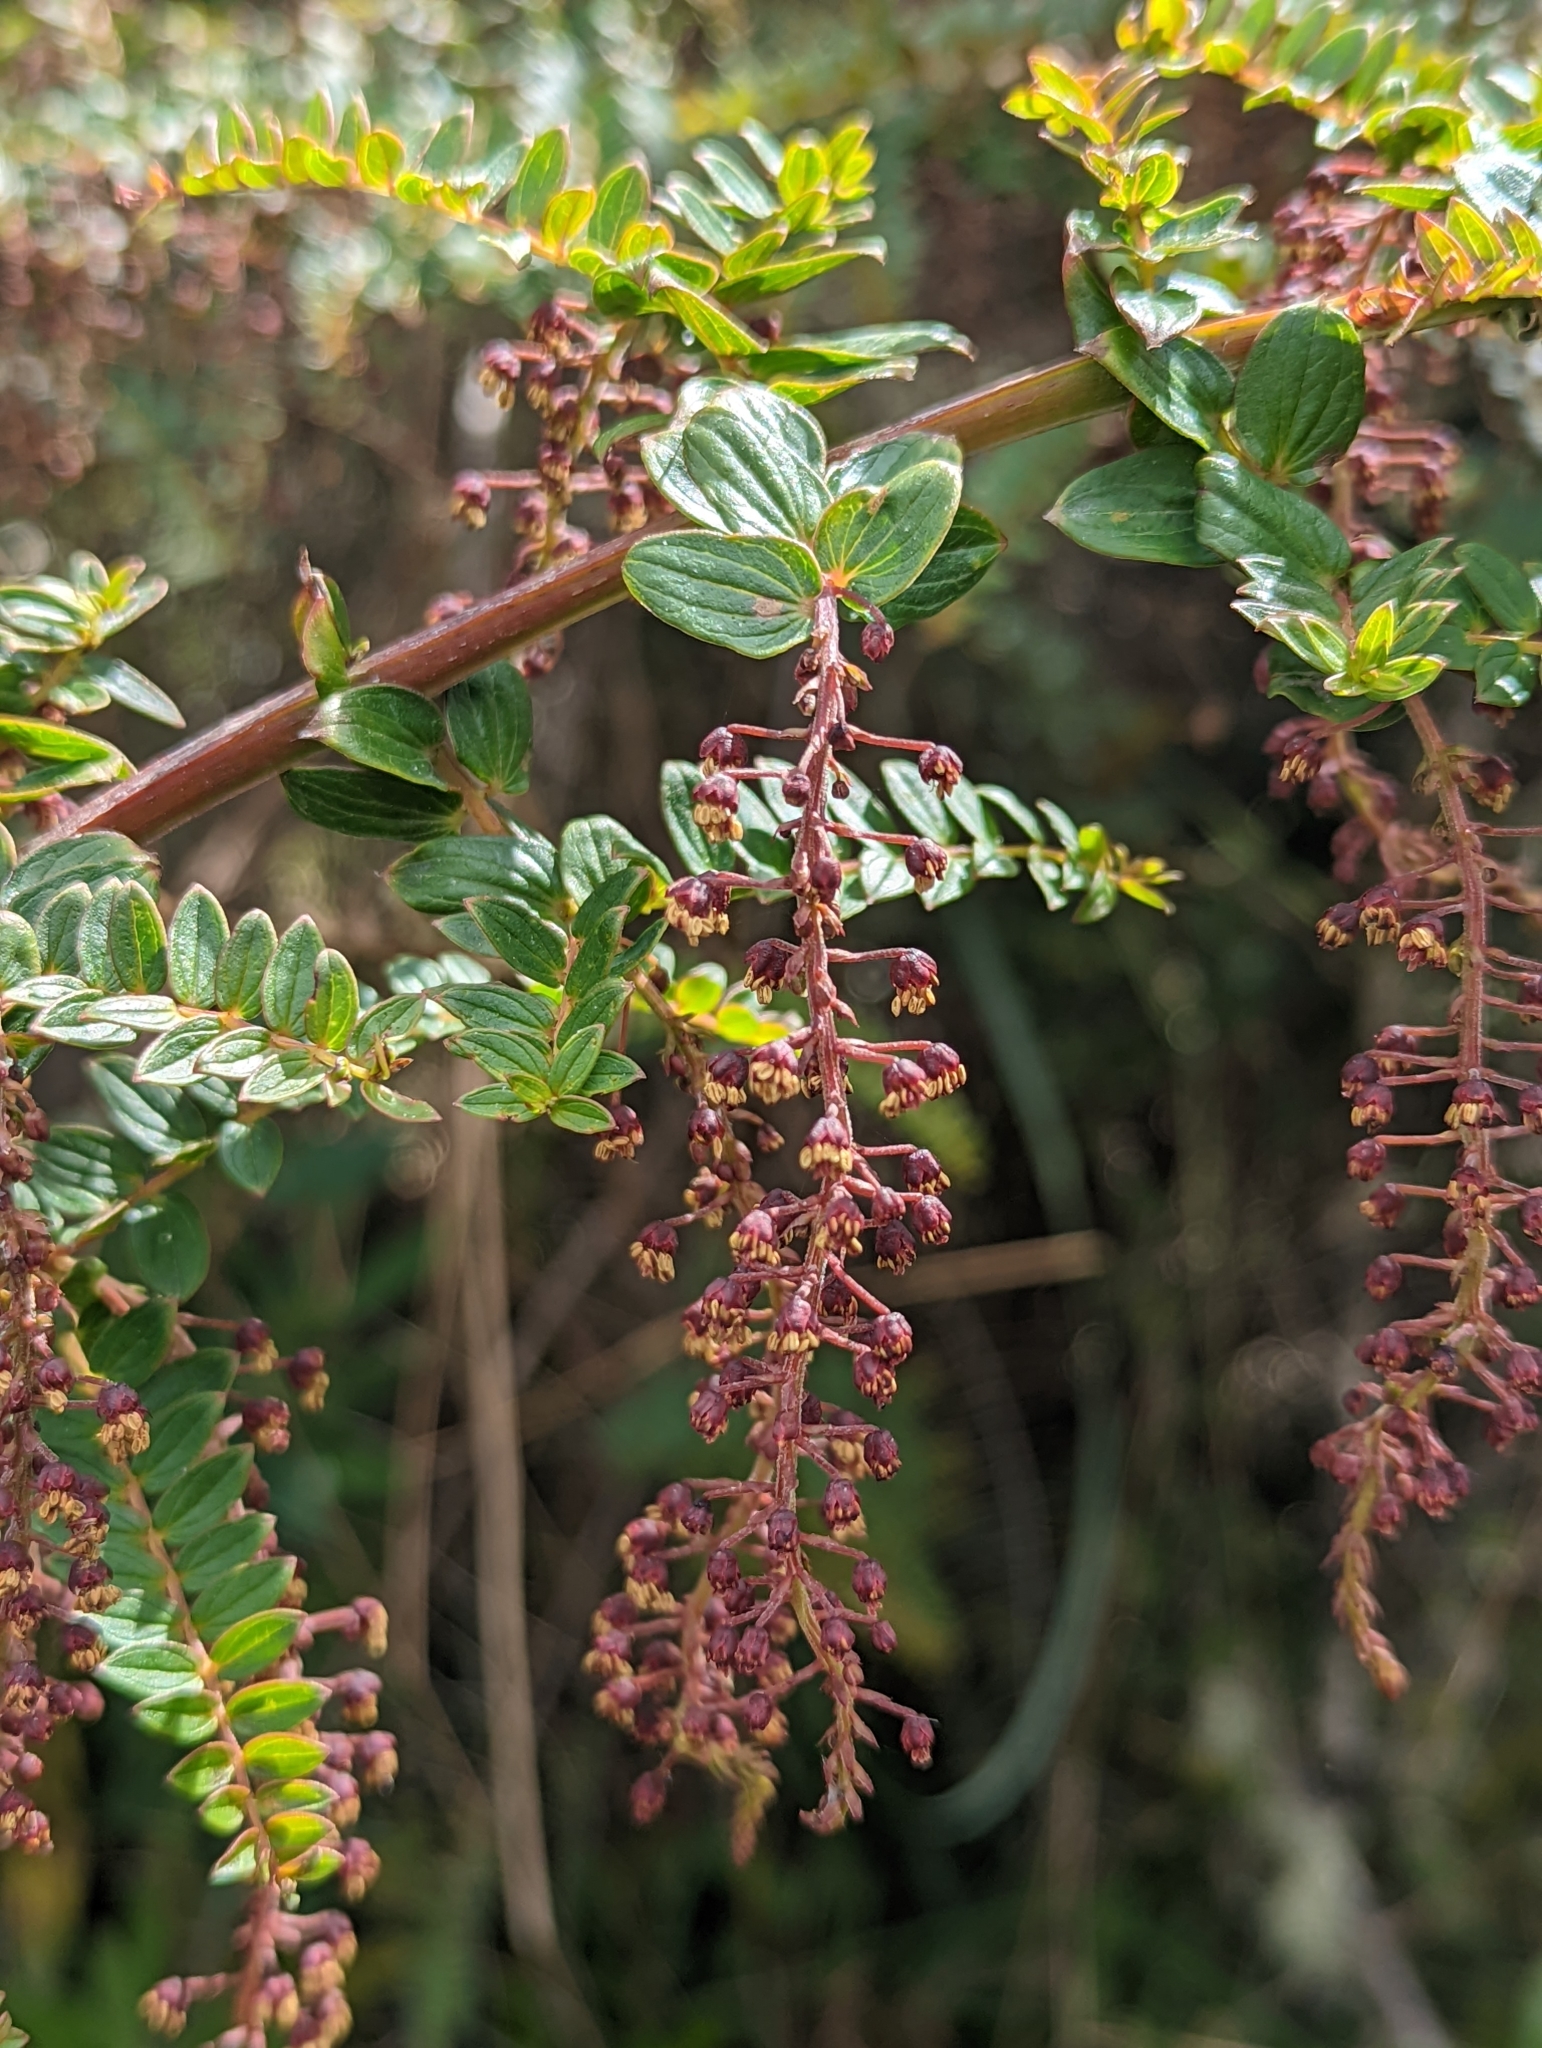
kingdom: Plantae
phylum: Tracheophyta
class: Magnoliopsida
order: Cucurbitales
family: Coriariaceae
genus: Coriaria
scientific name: Coriaria ruscifolia
